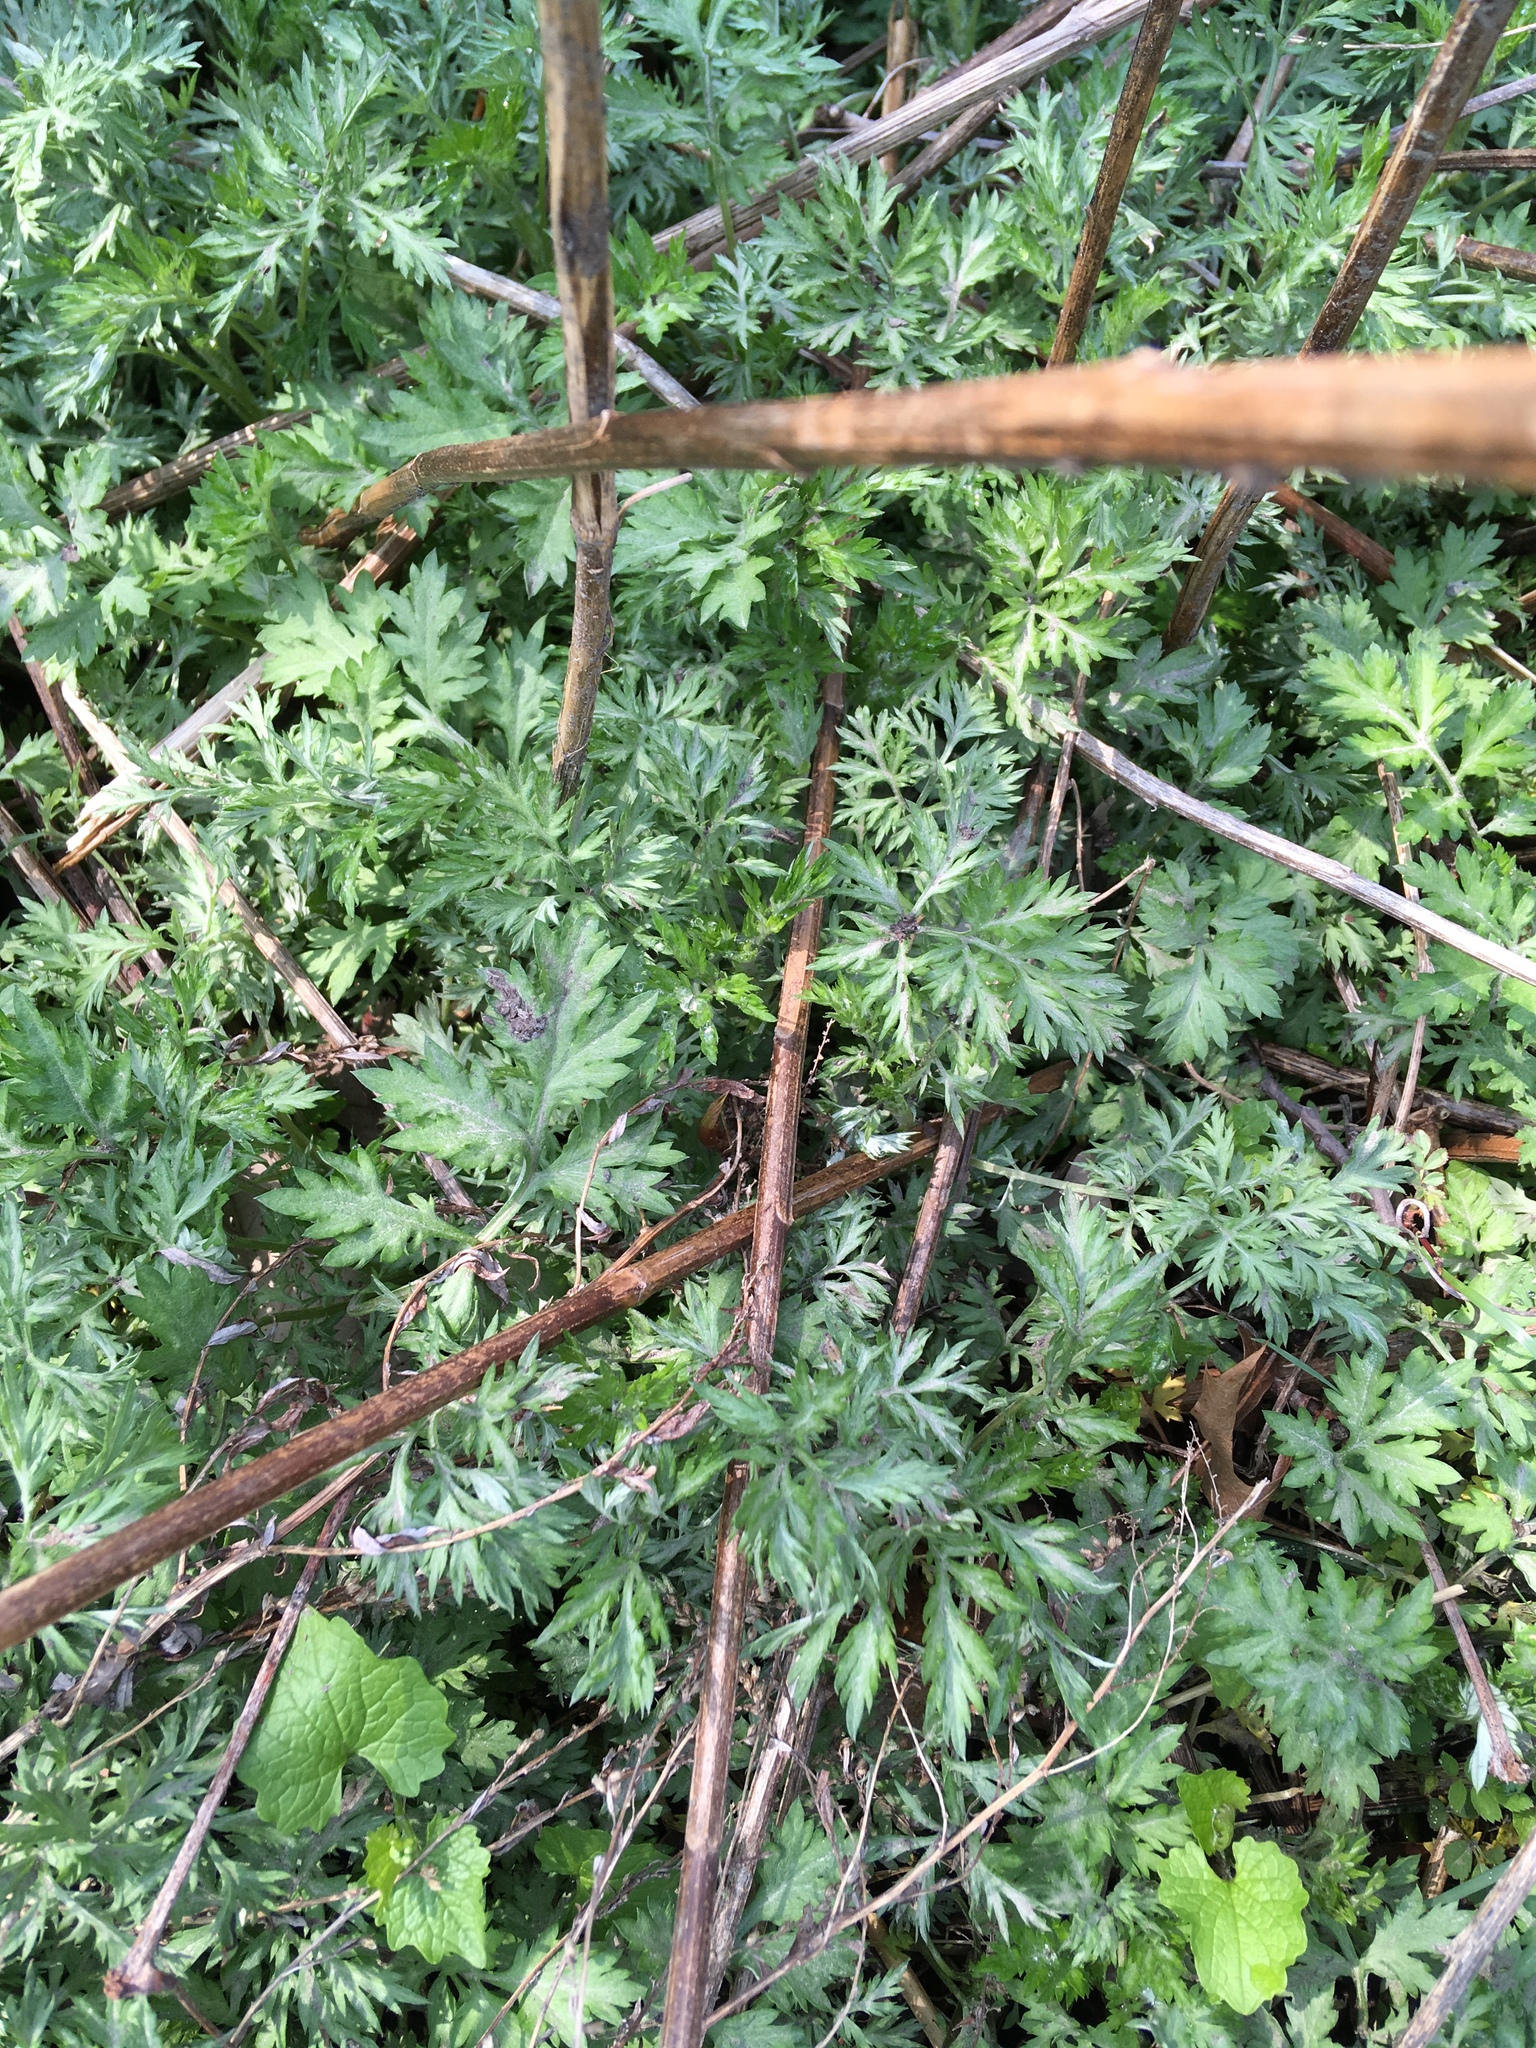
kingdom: Plantae
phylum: Tracheophyta
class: Magnoliopsida
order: Asterales
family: Asteraceae
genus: Artemisia
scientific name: Artemisia vulgaris
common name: Mugwort
